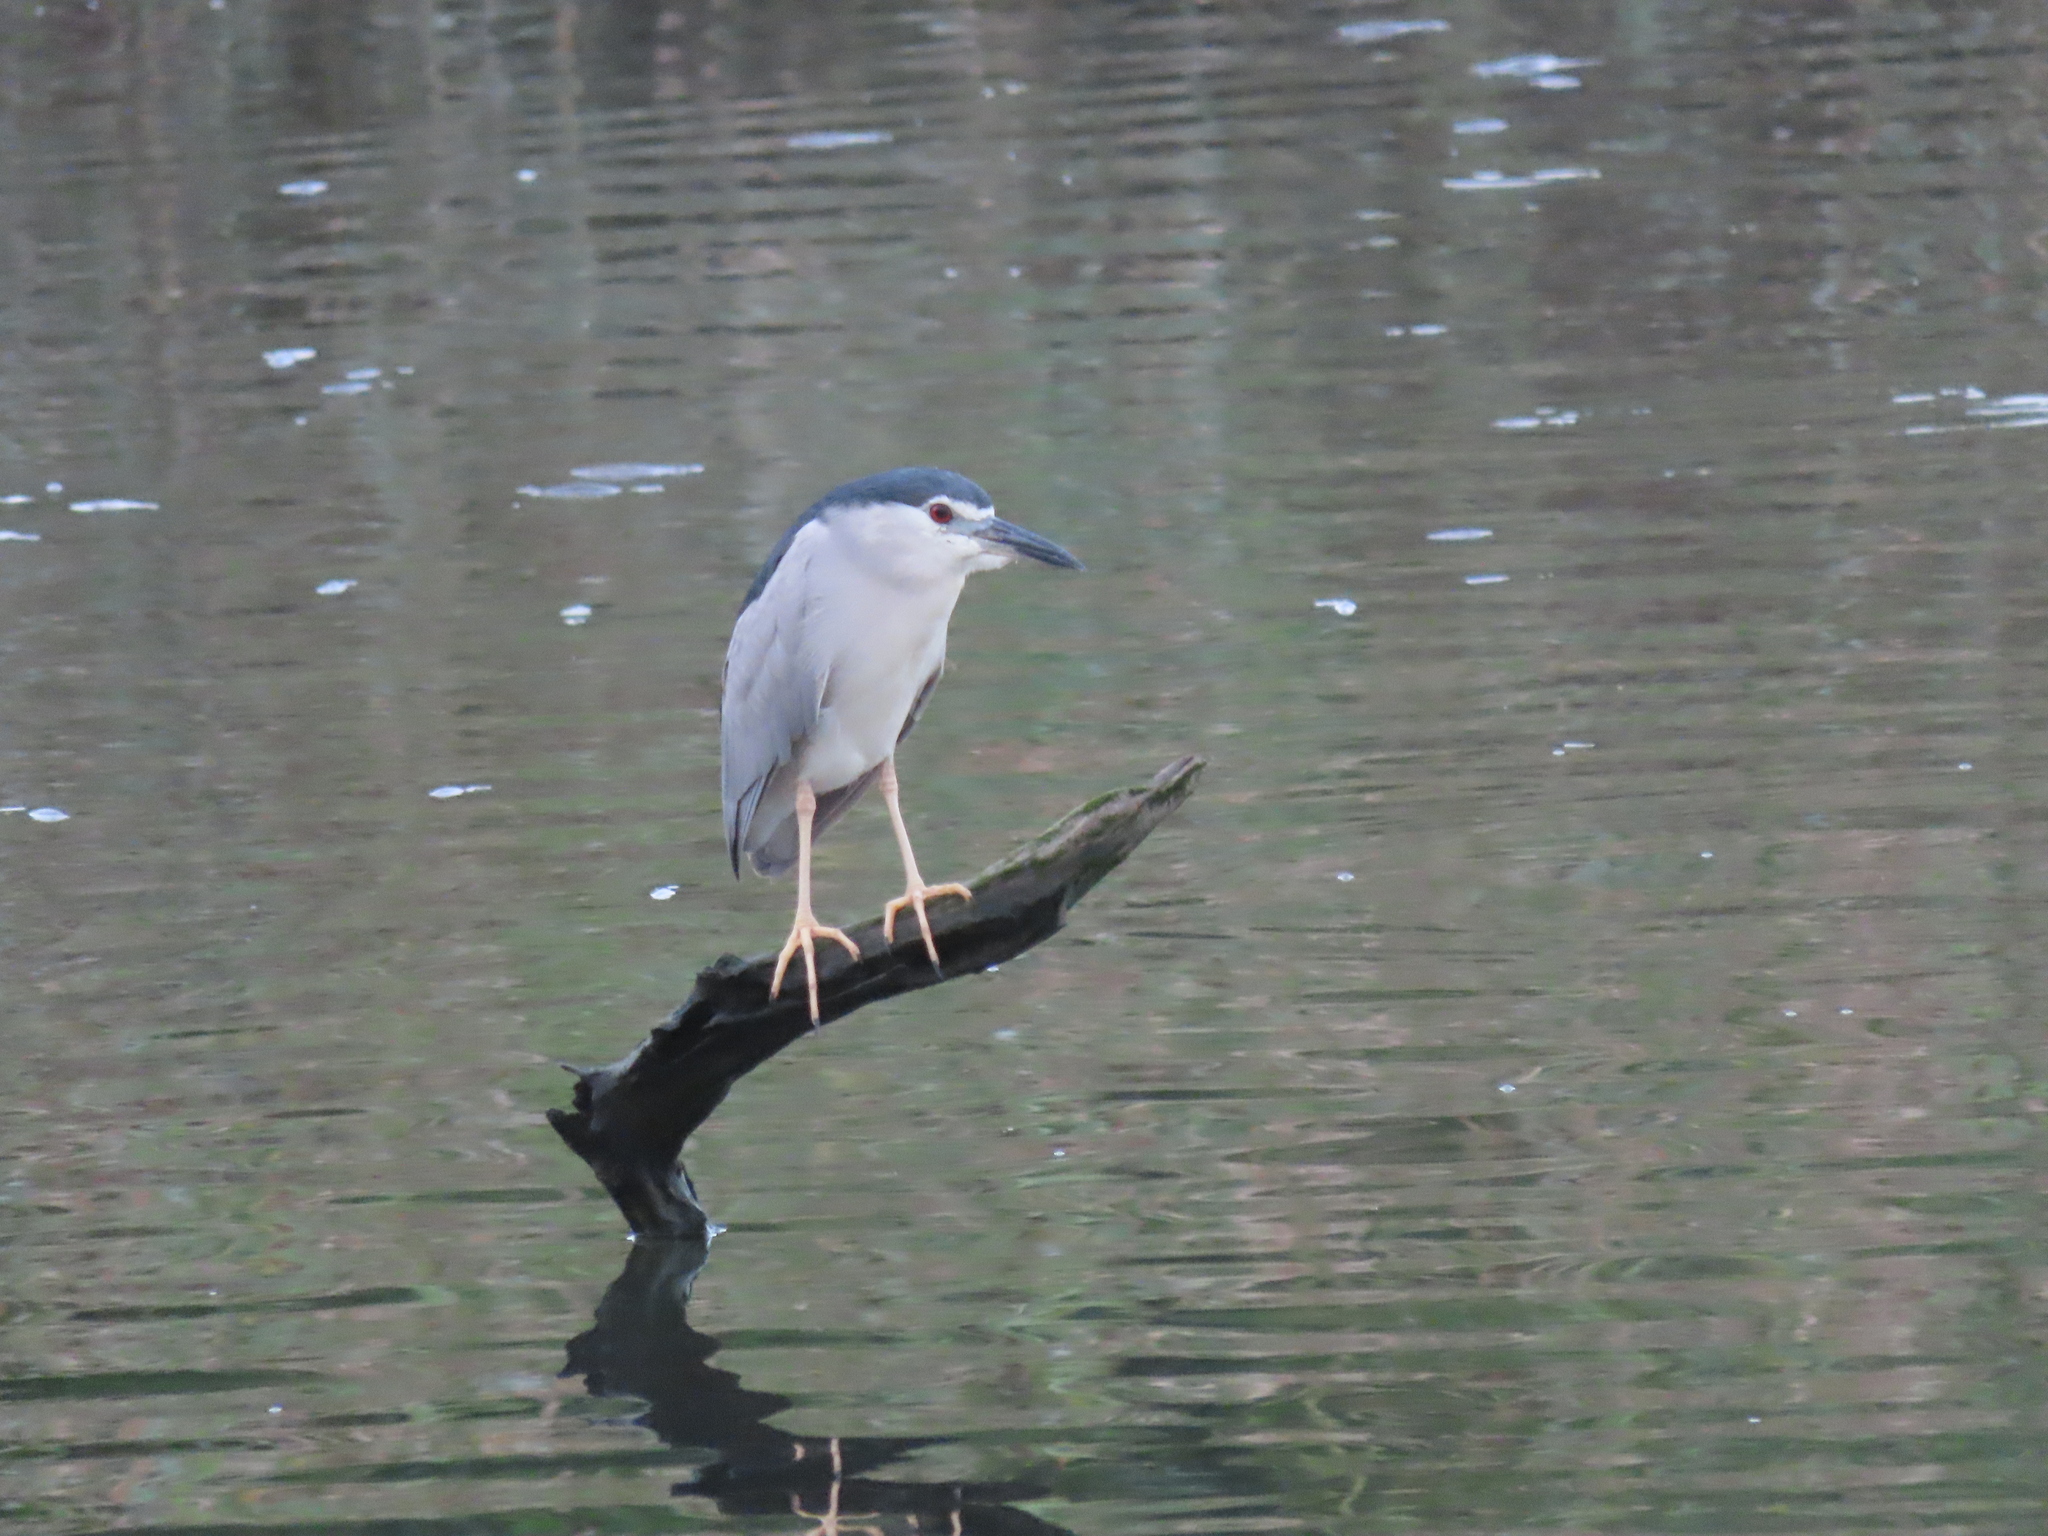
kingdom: Animalia
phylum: Chordata
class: Aves
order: Pelecaniformes
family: Ardeidae
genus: Nycticorax
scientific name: Nycticorax nycticorax
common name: Black-crowned night heron
